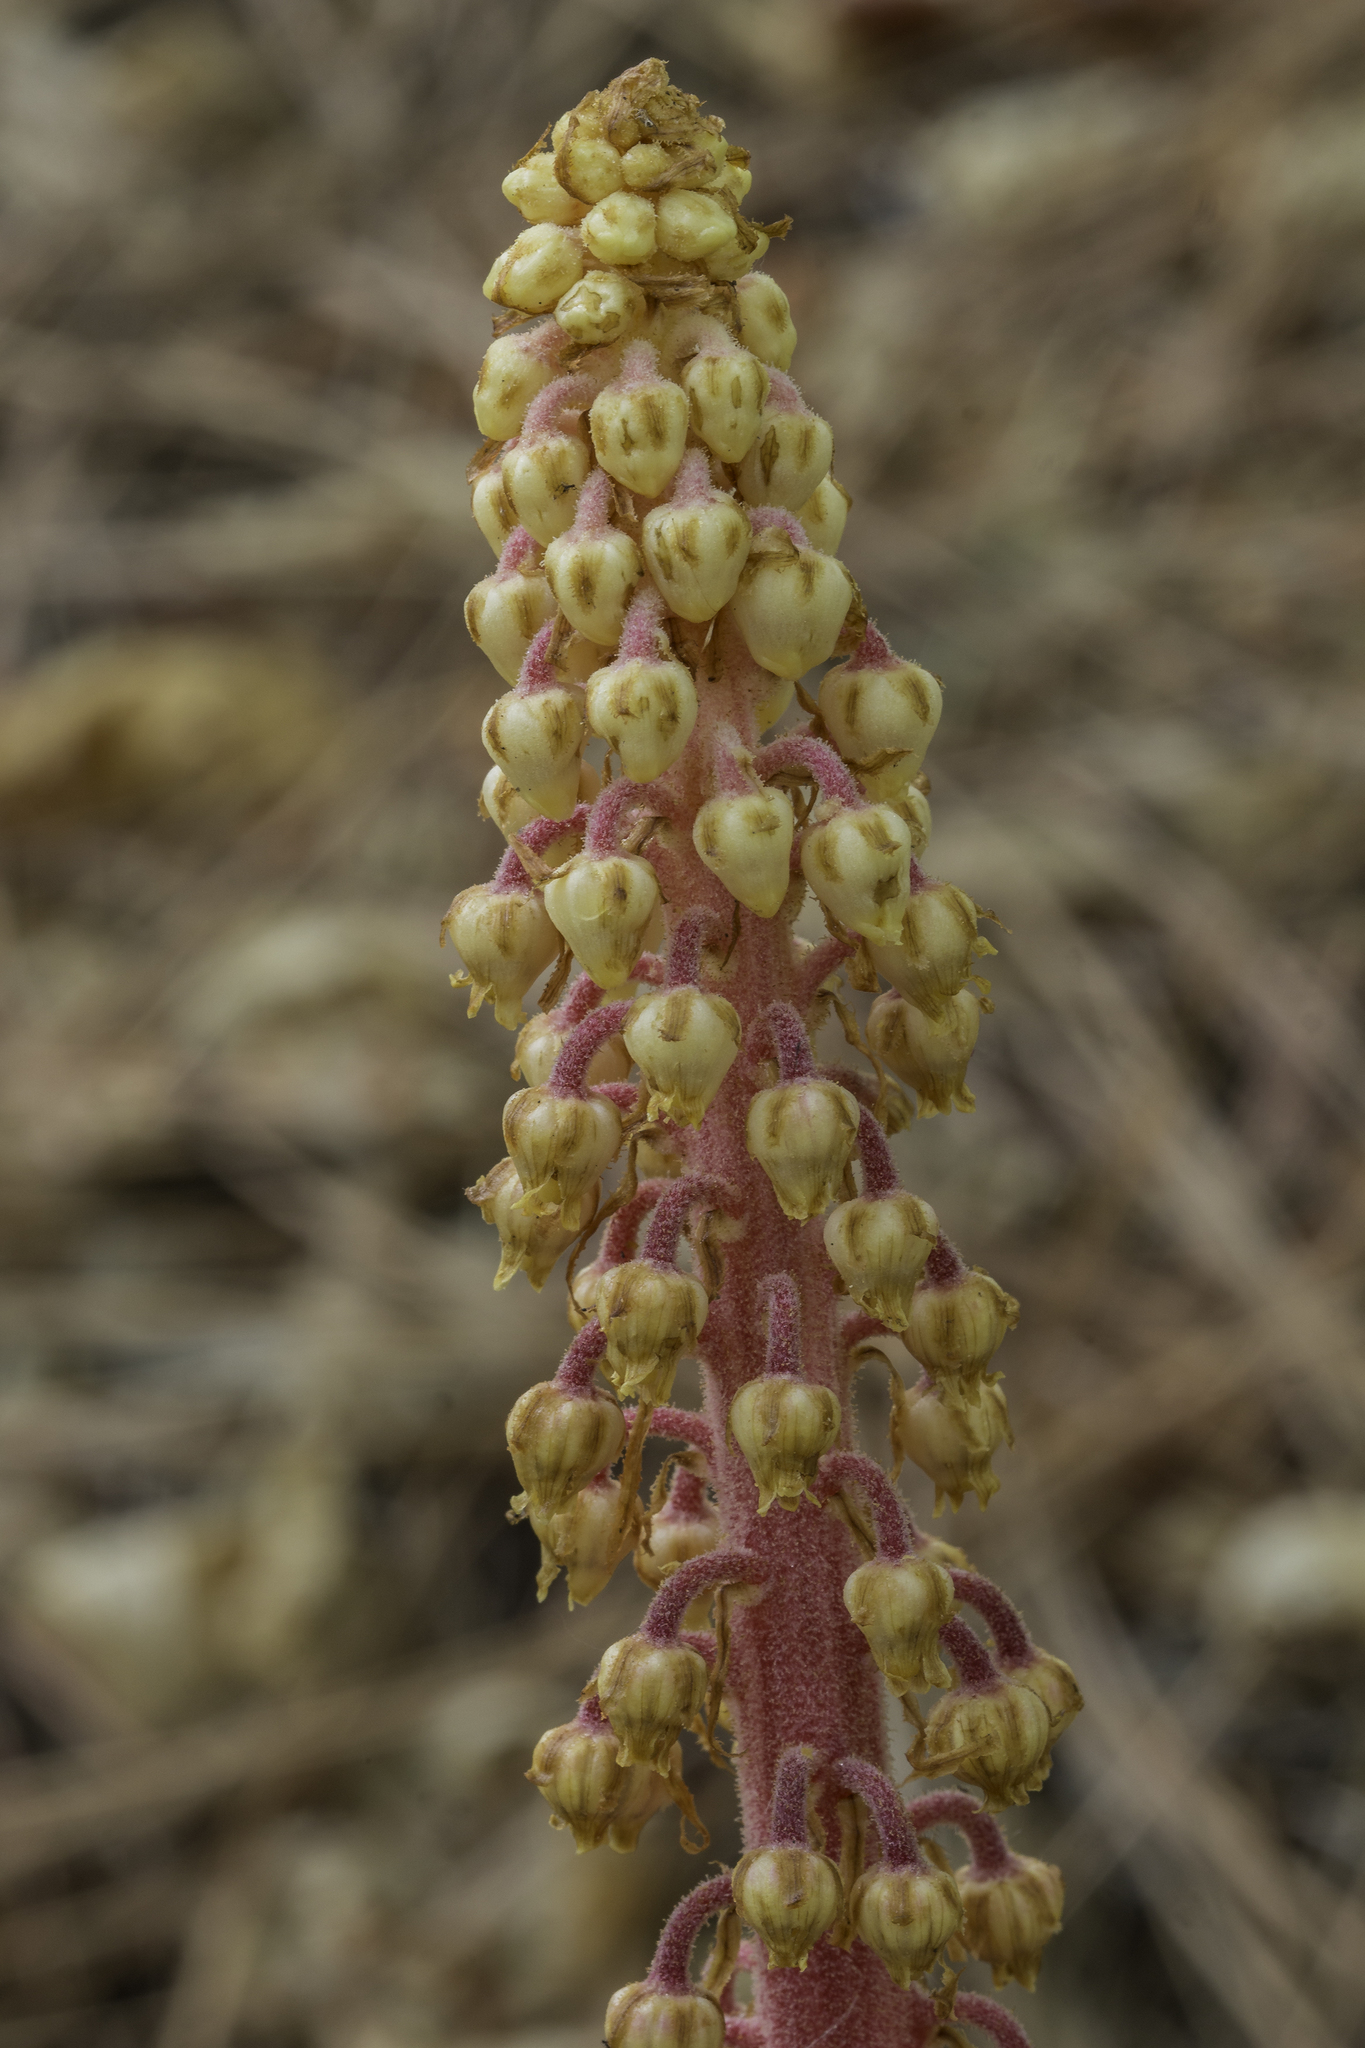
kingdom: Plantae
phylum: Tracheophyta
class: Magnoliopsida
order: Ericales
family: Ericaceae
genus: Pterospora
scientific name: Pterospora andromedea
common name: Giant bird's-nest
